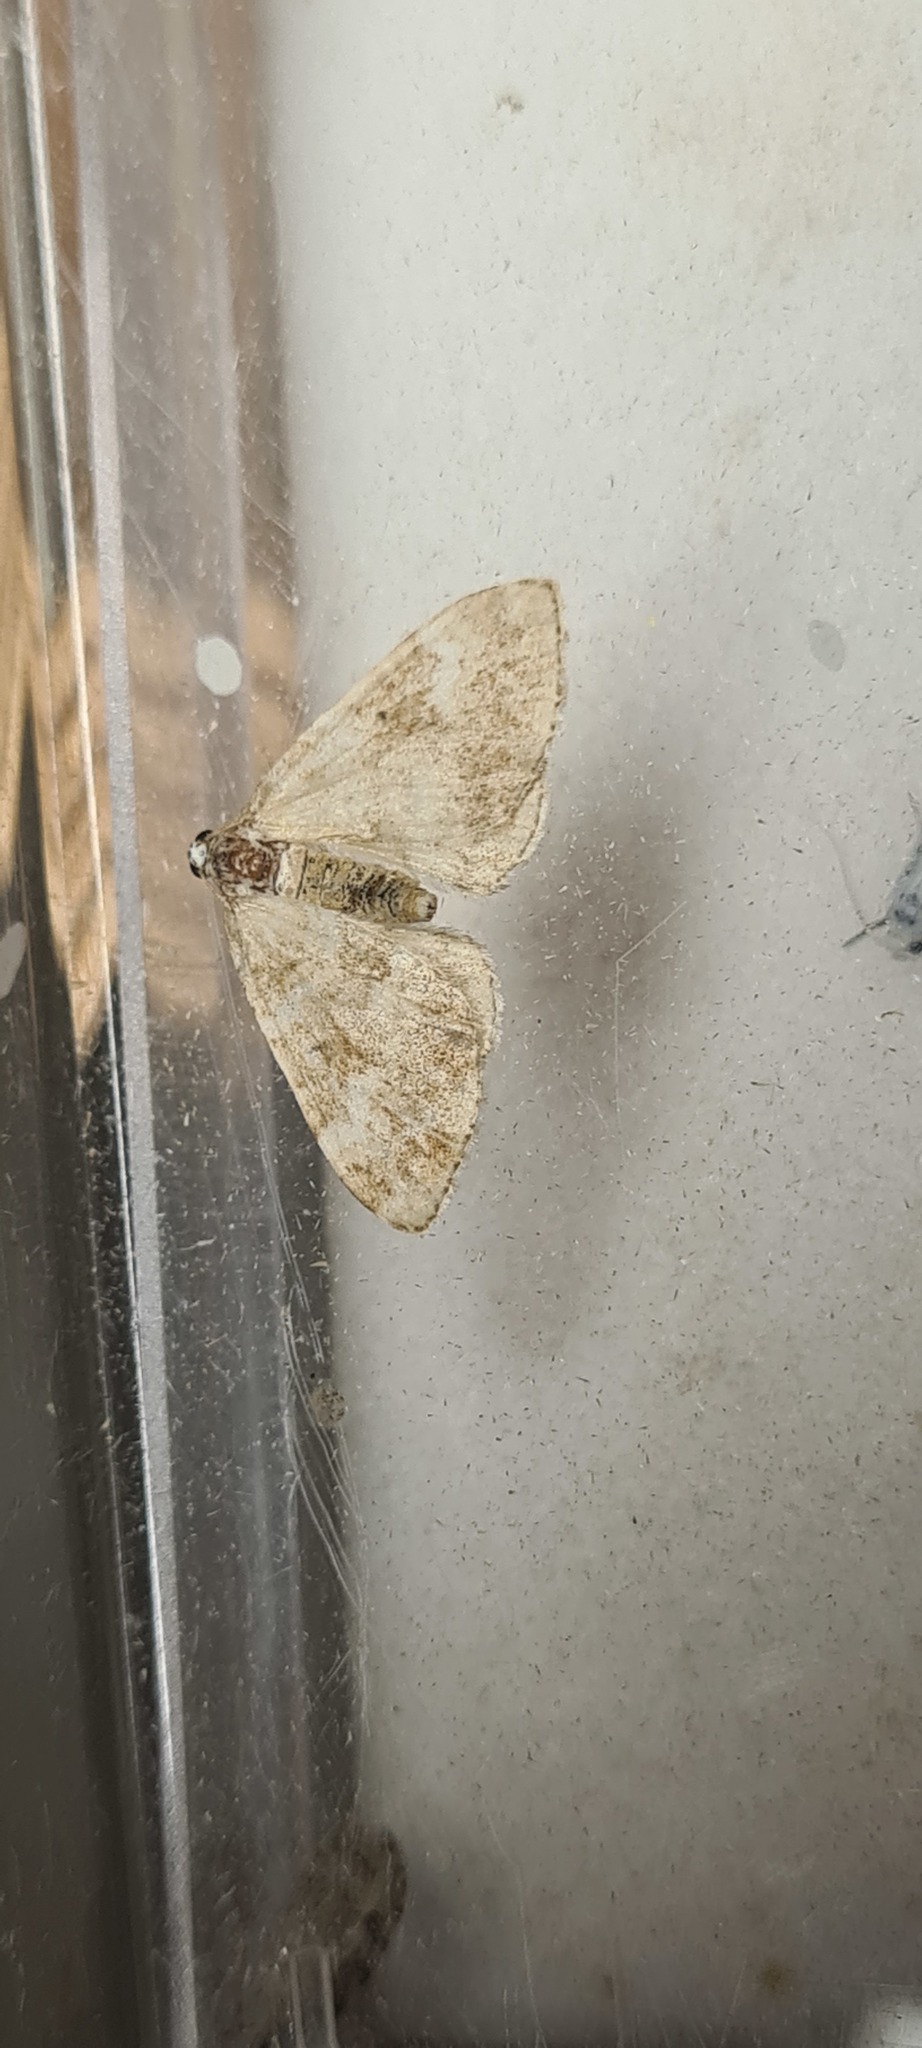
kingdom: Animalia
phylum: Arthropoda
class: Insecta
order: Lepidoptera
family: Geometridae
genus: Perizoma
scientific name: Perizoma flavofasciata
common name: Sandy carpet
